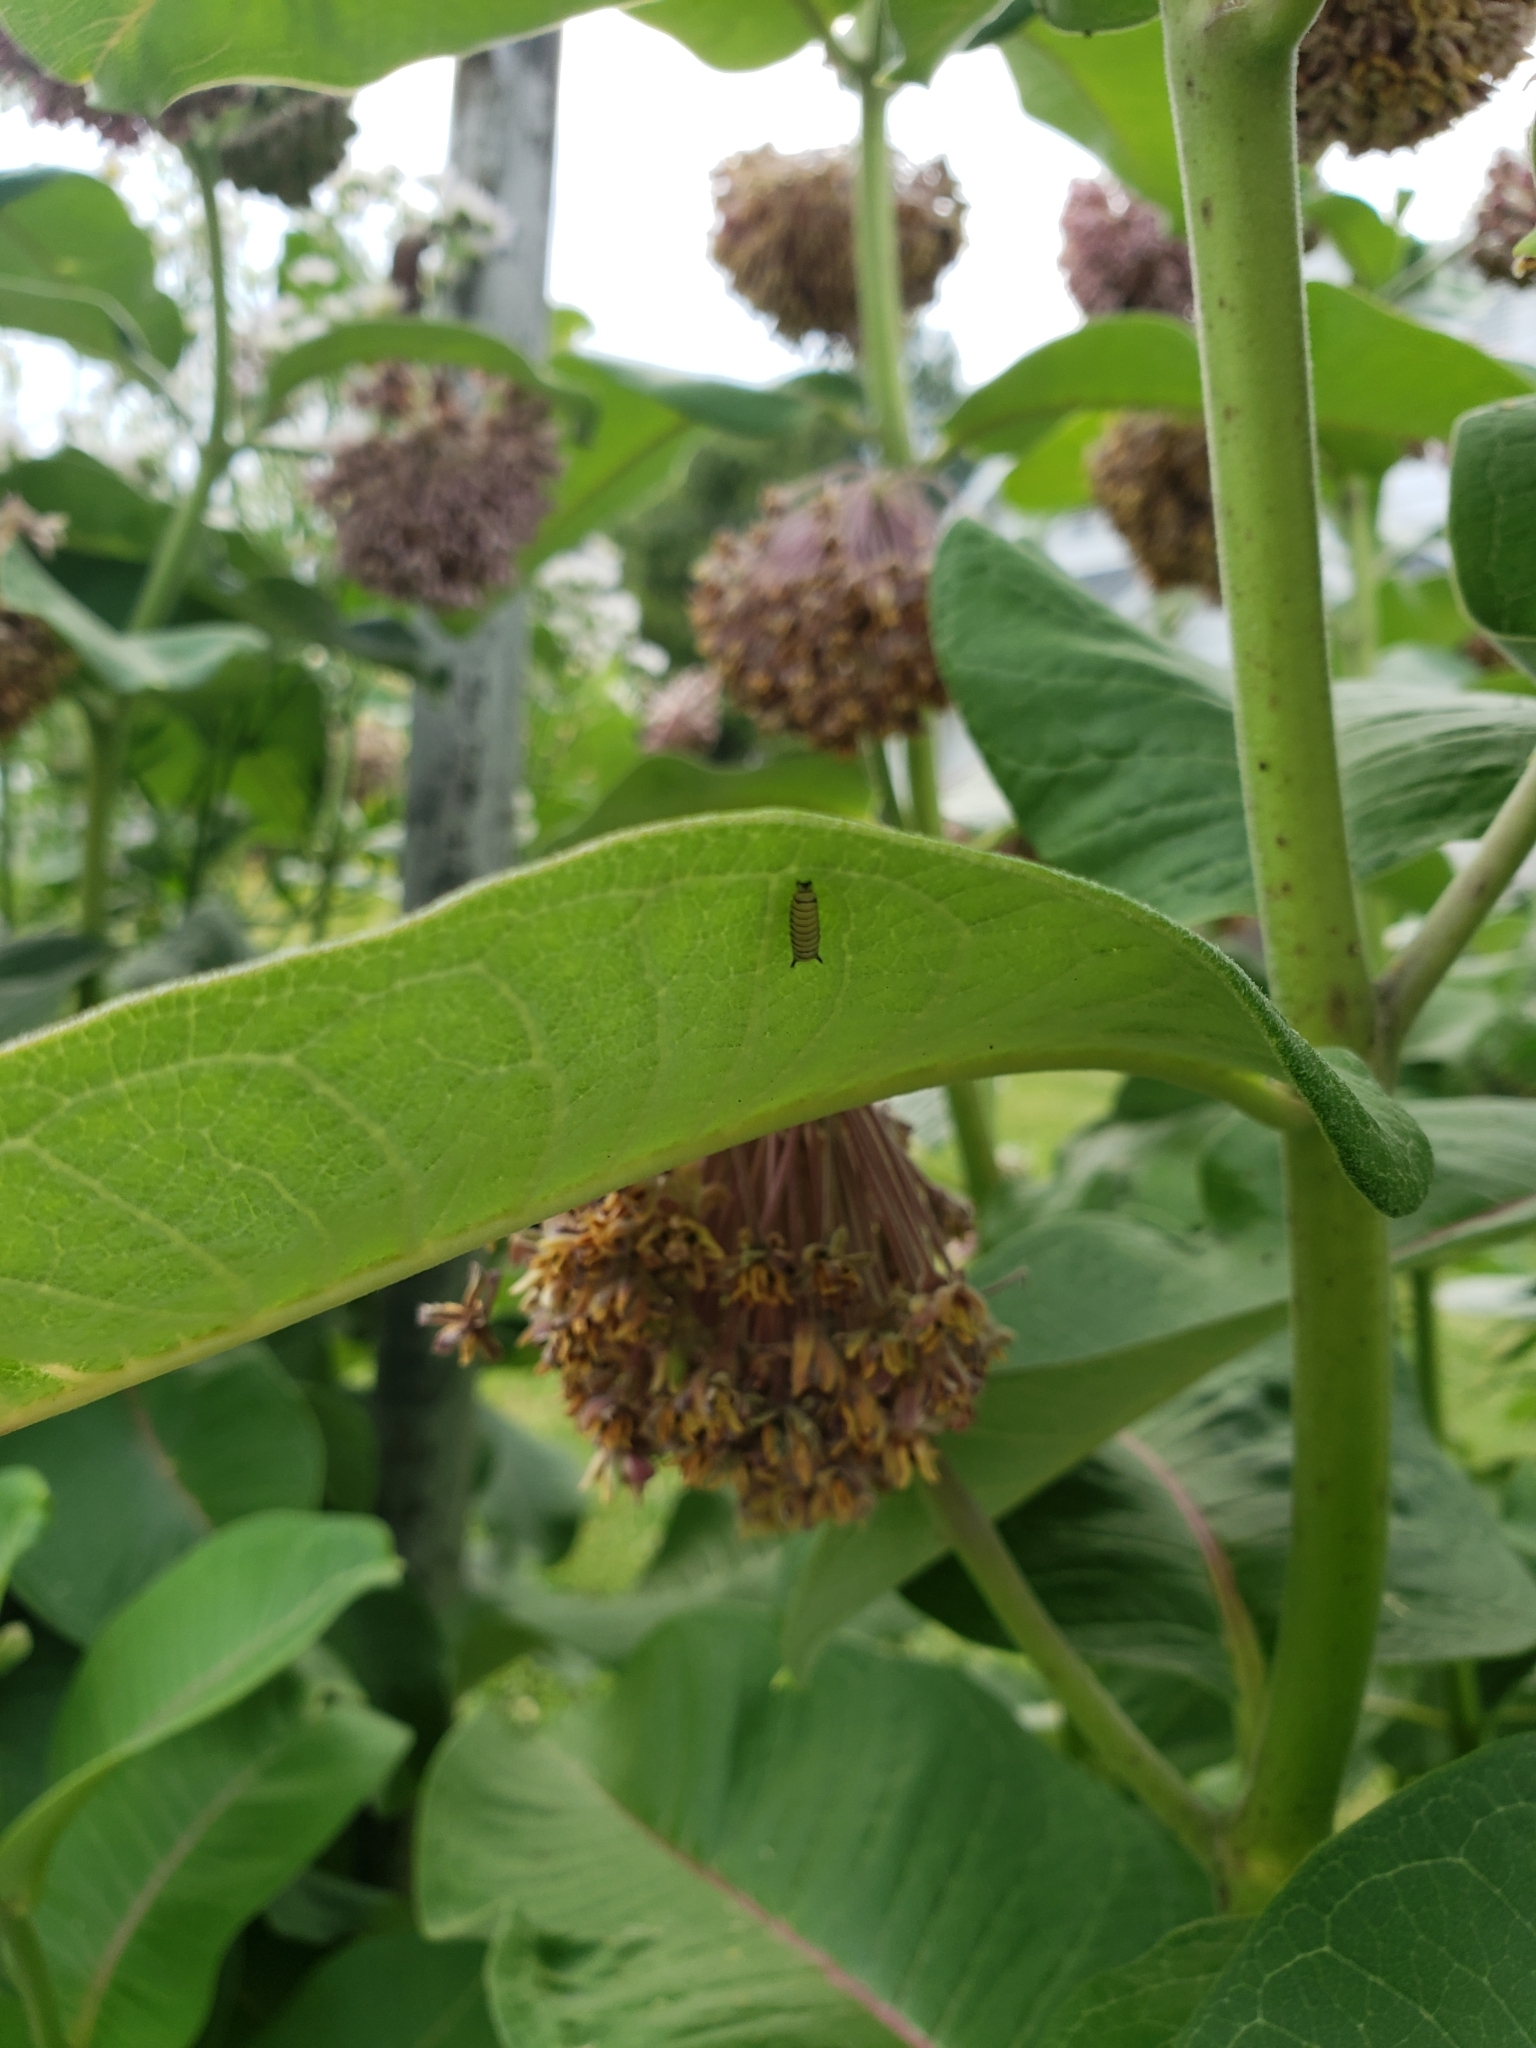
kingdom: Animalia
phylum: Arthropoda
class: Insecta
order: Lepidoptera
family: Nymphalidae
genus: Danaus
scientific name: Danaus plexippus
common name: Monarch
